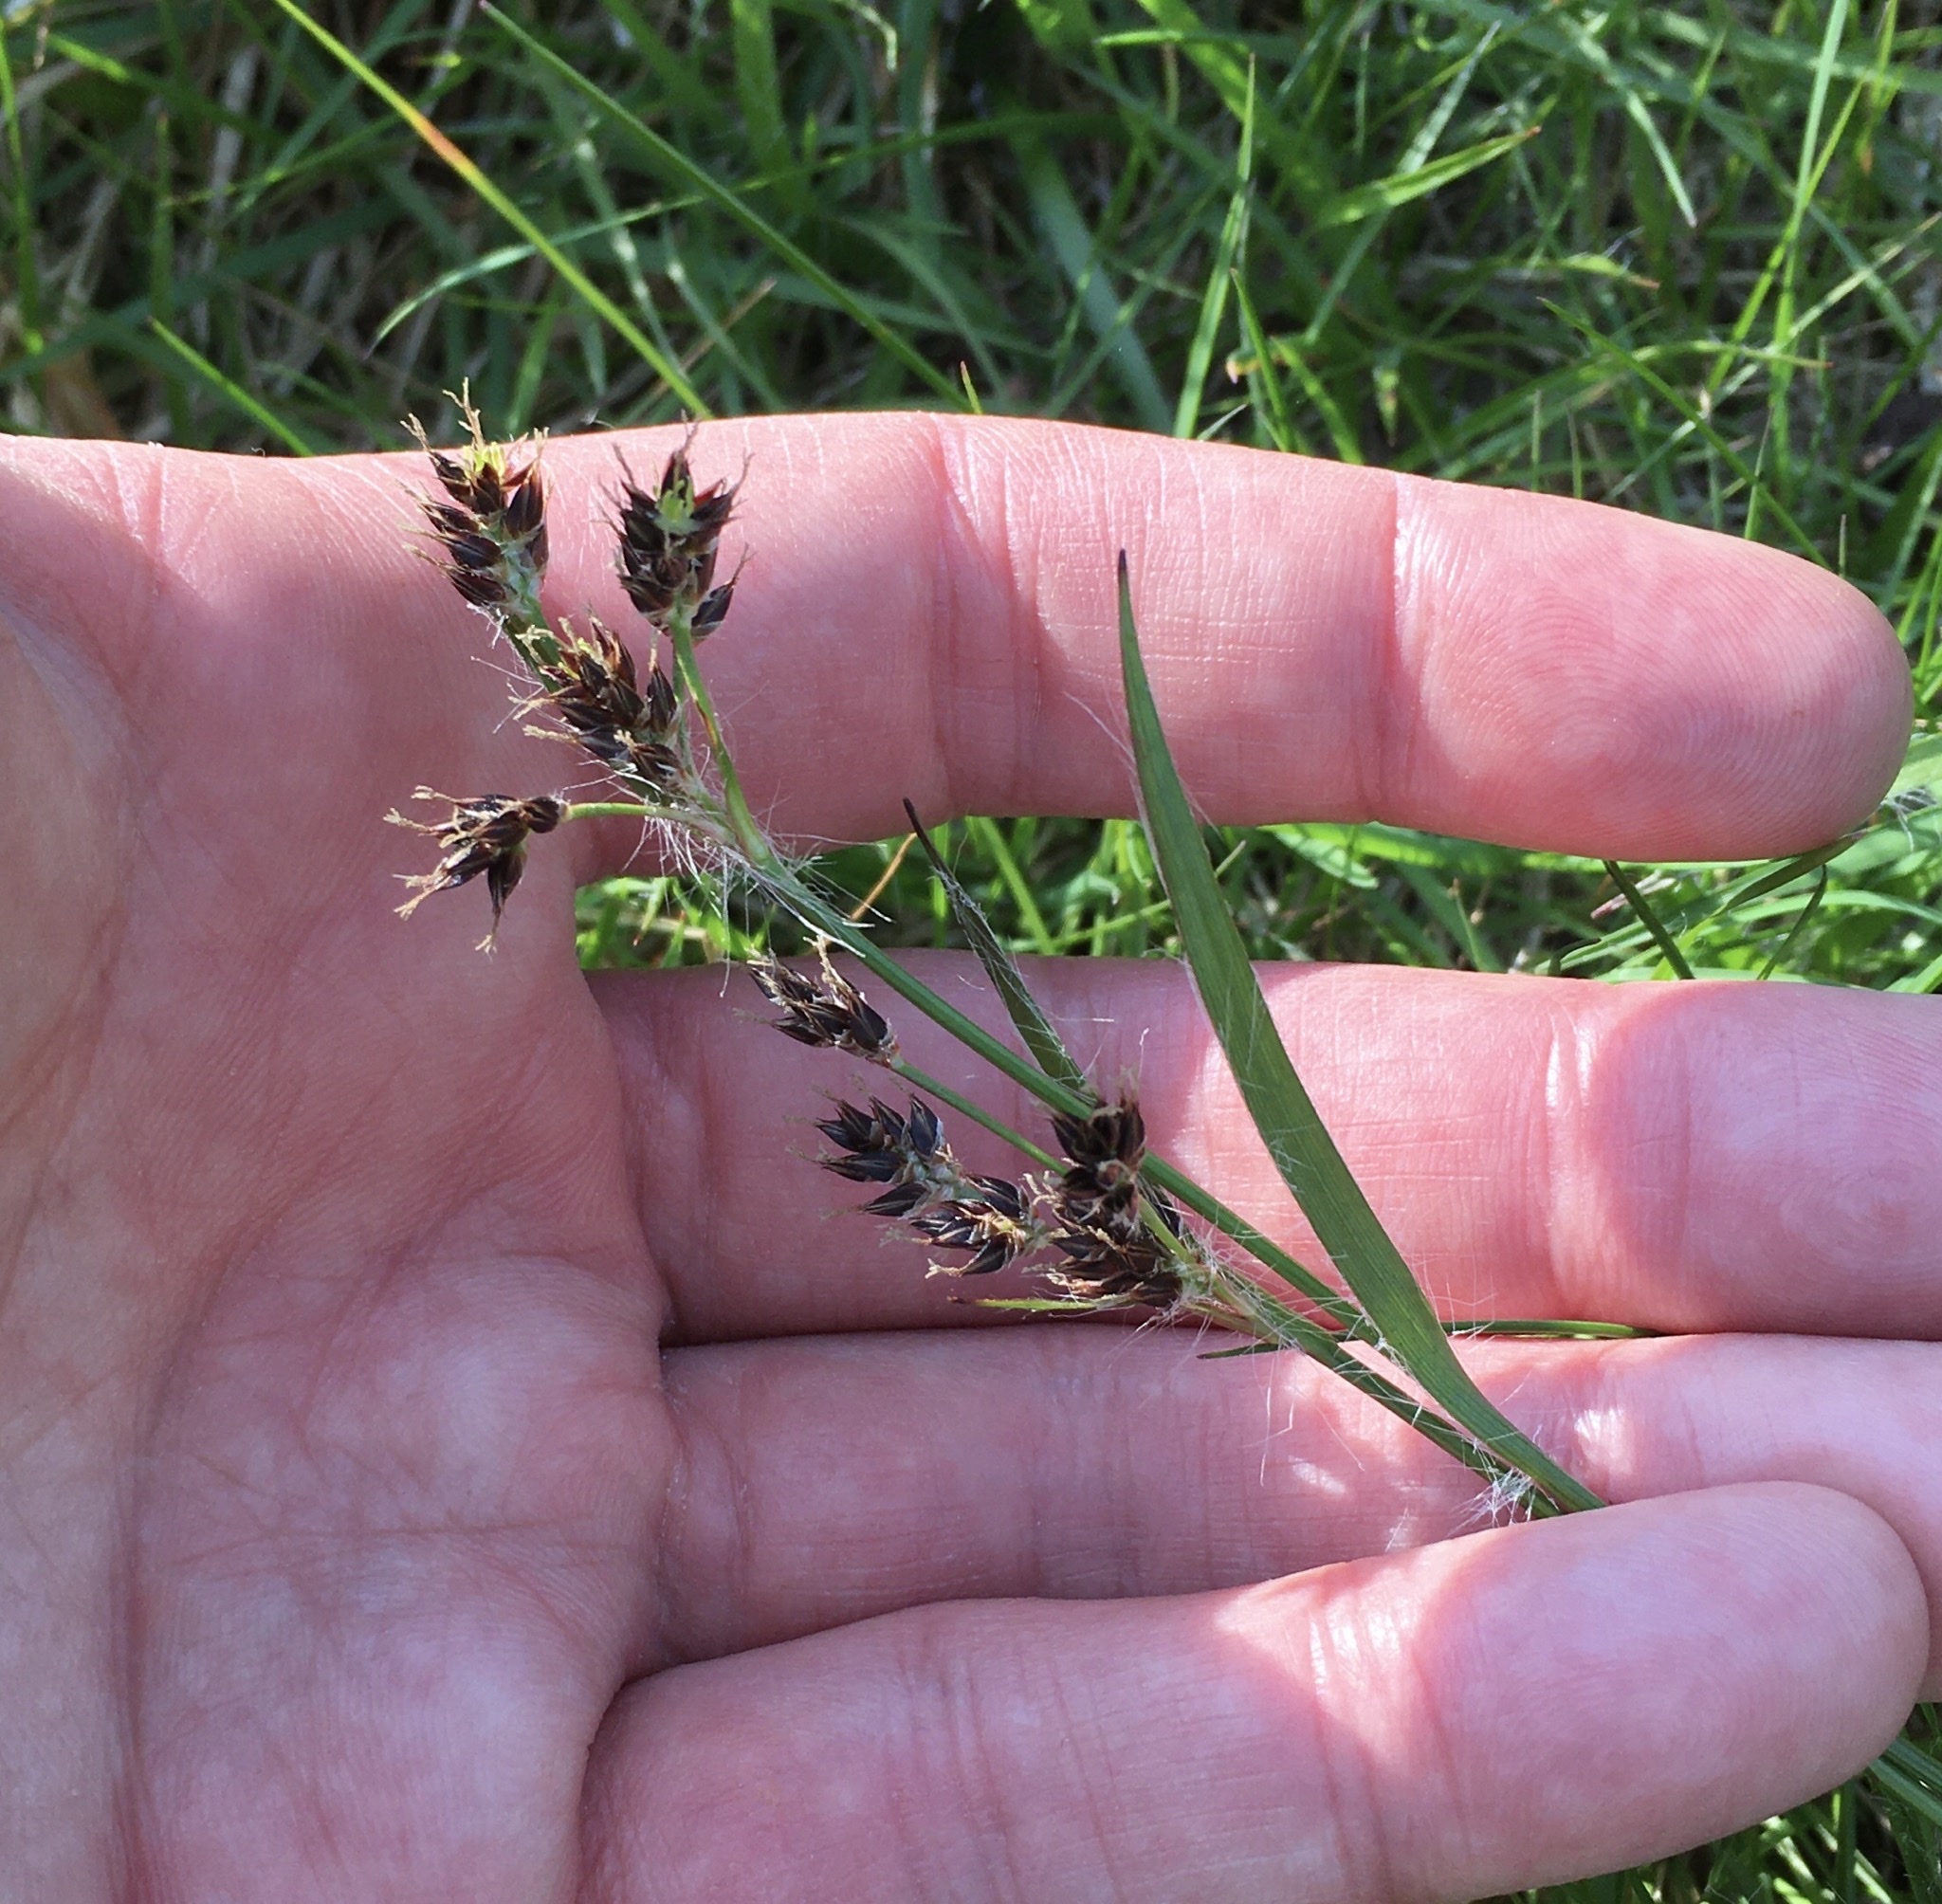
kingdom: Plantae
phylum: Tracheophyta
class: Liliopsida
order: Poales
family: Juncaceae
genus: Luzula
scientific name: Luzula campestris
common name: Field wood-rush
